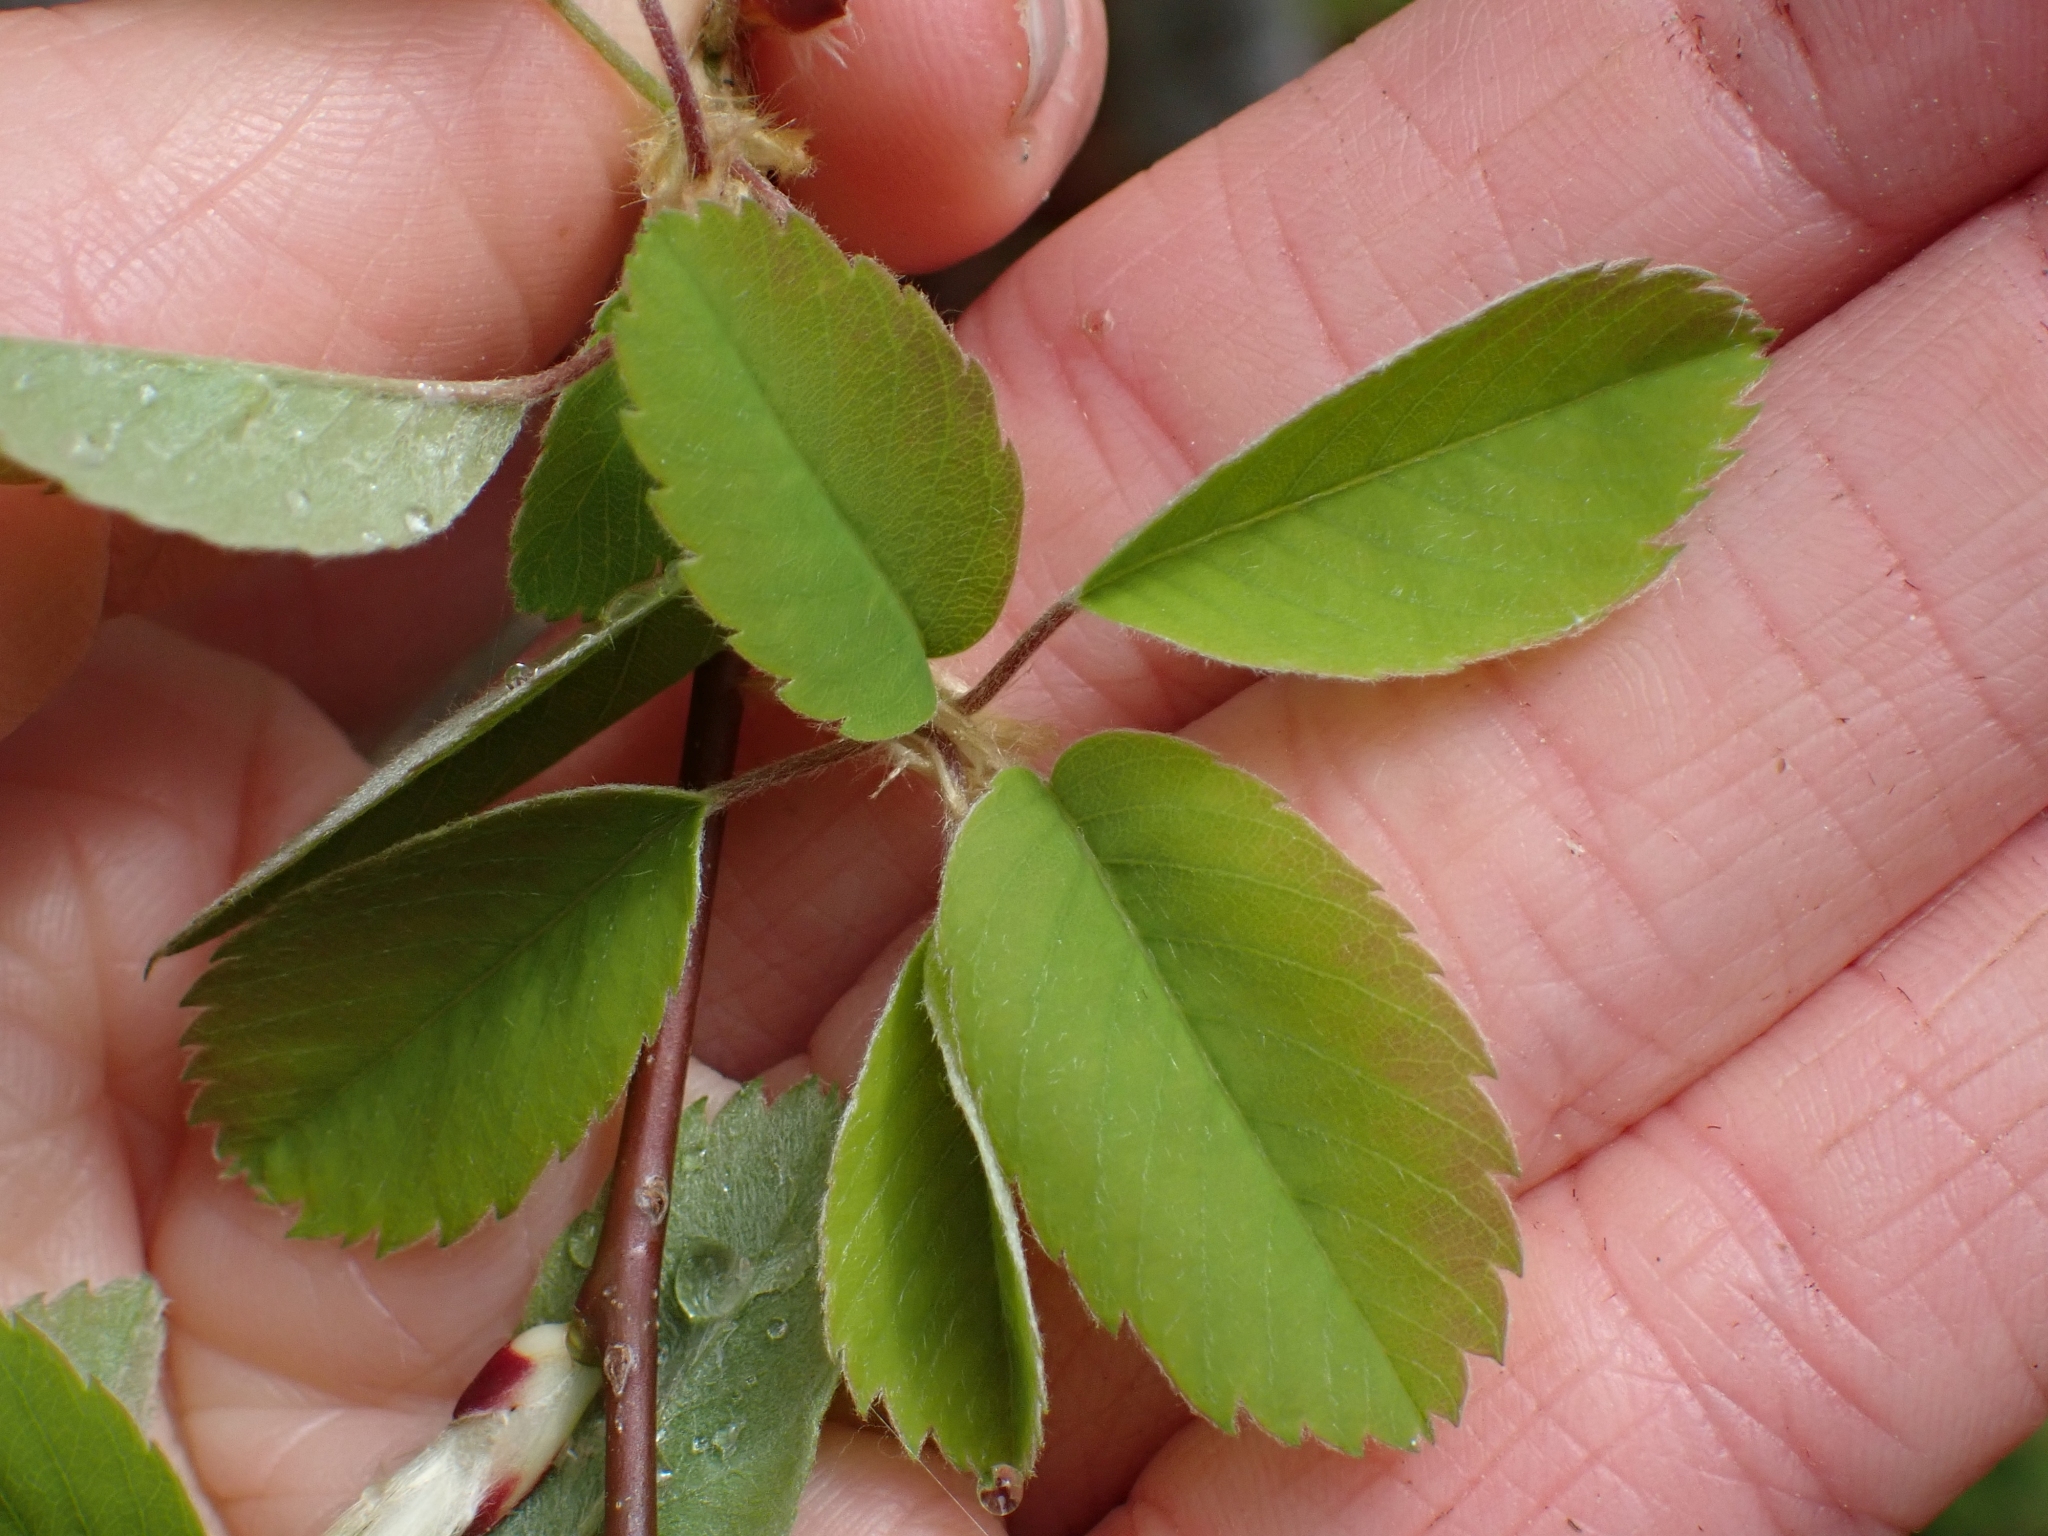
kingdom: Plantae
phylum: Tracheophyta
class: Magnoliopsida
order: Rosales
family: Rosaceae
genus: Amelanchier
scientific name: Amelanchier alnifolia
